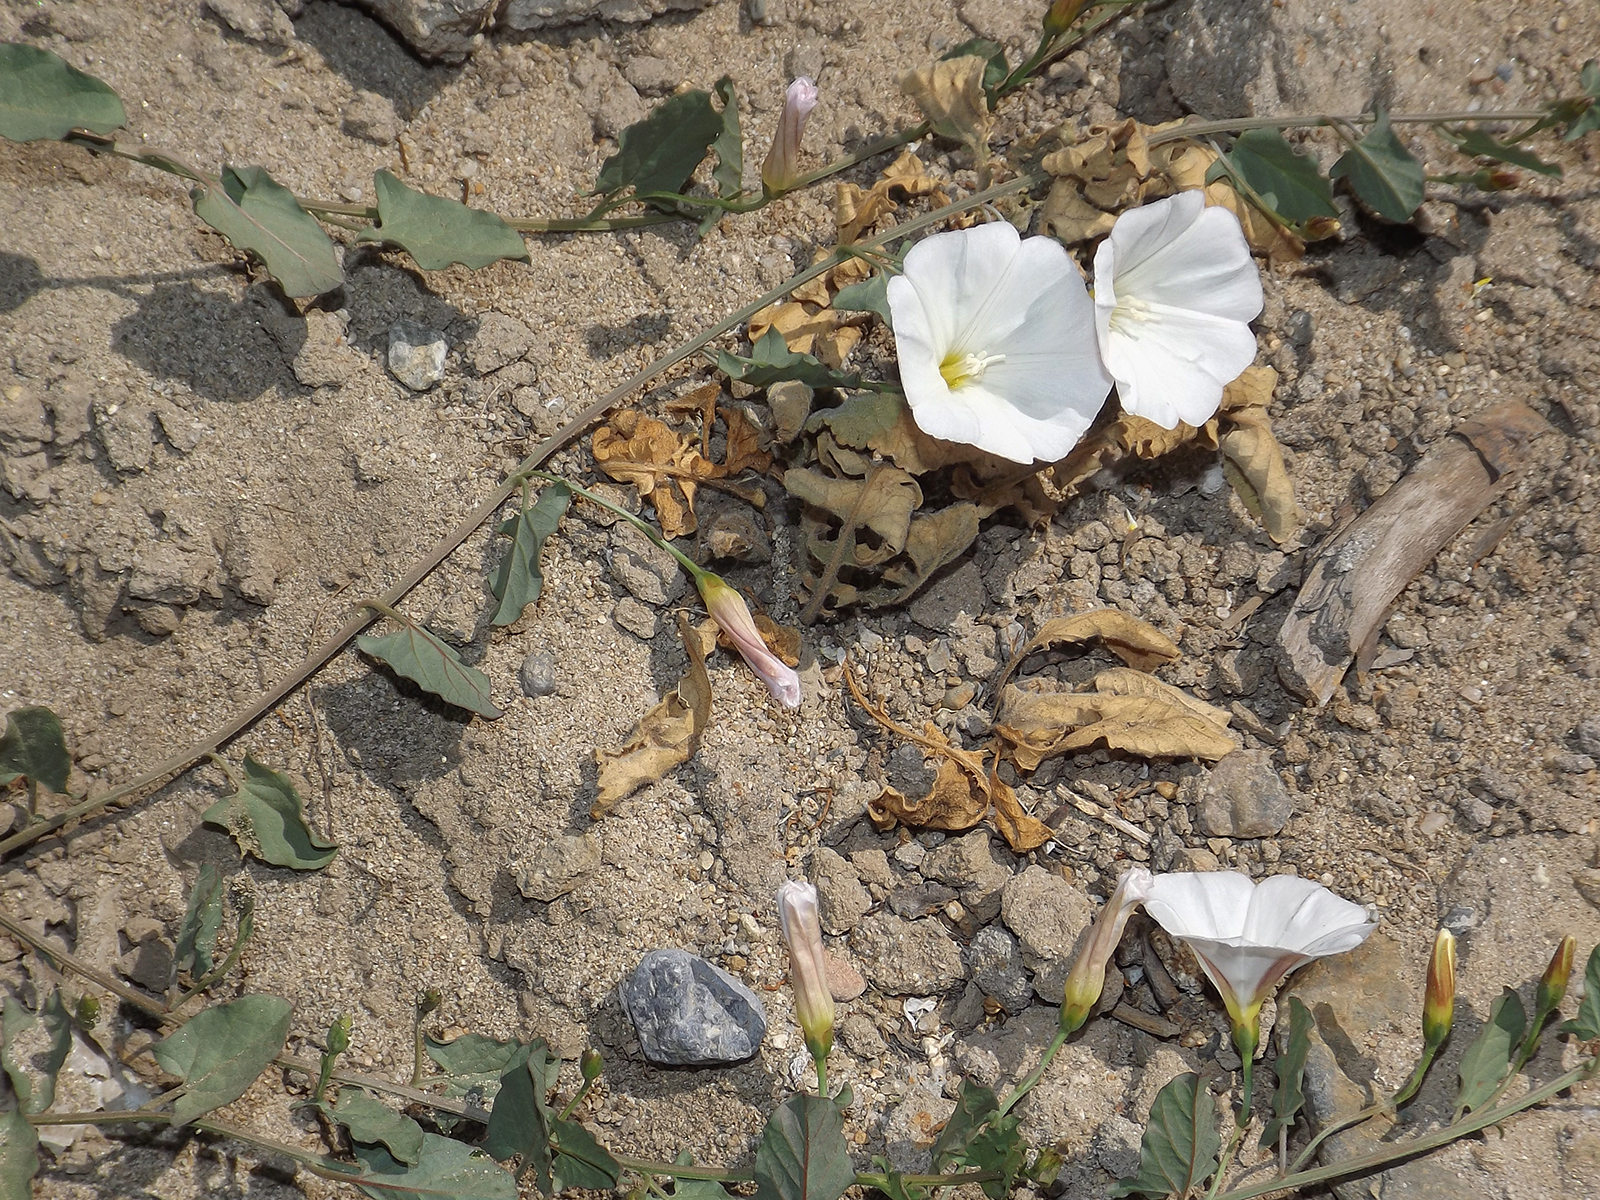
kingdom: Plantae
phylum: Tracheophyta
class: Magnoliopsida
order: Solanales
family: Convolvulaceae
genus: Convolvulus
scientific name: Convolvulus arvensis
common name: Field bindweed
